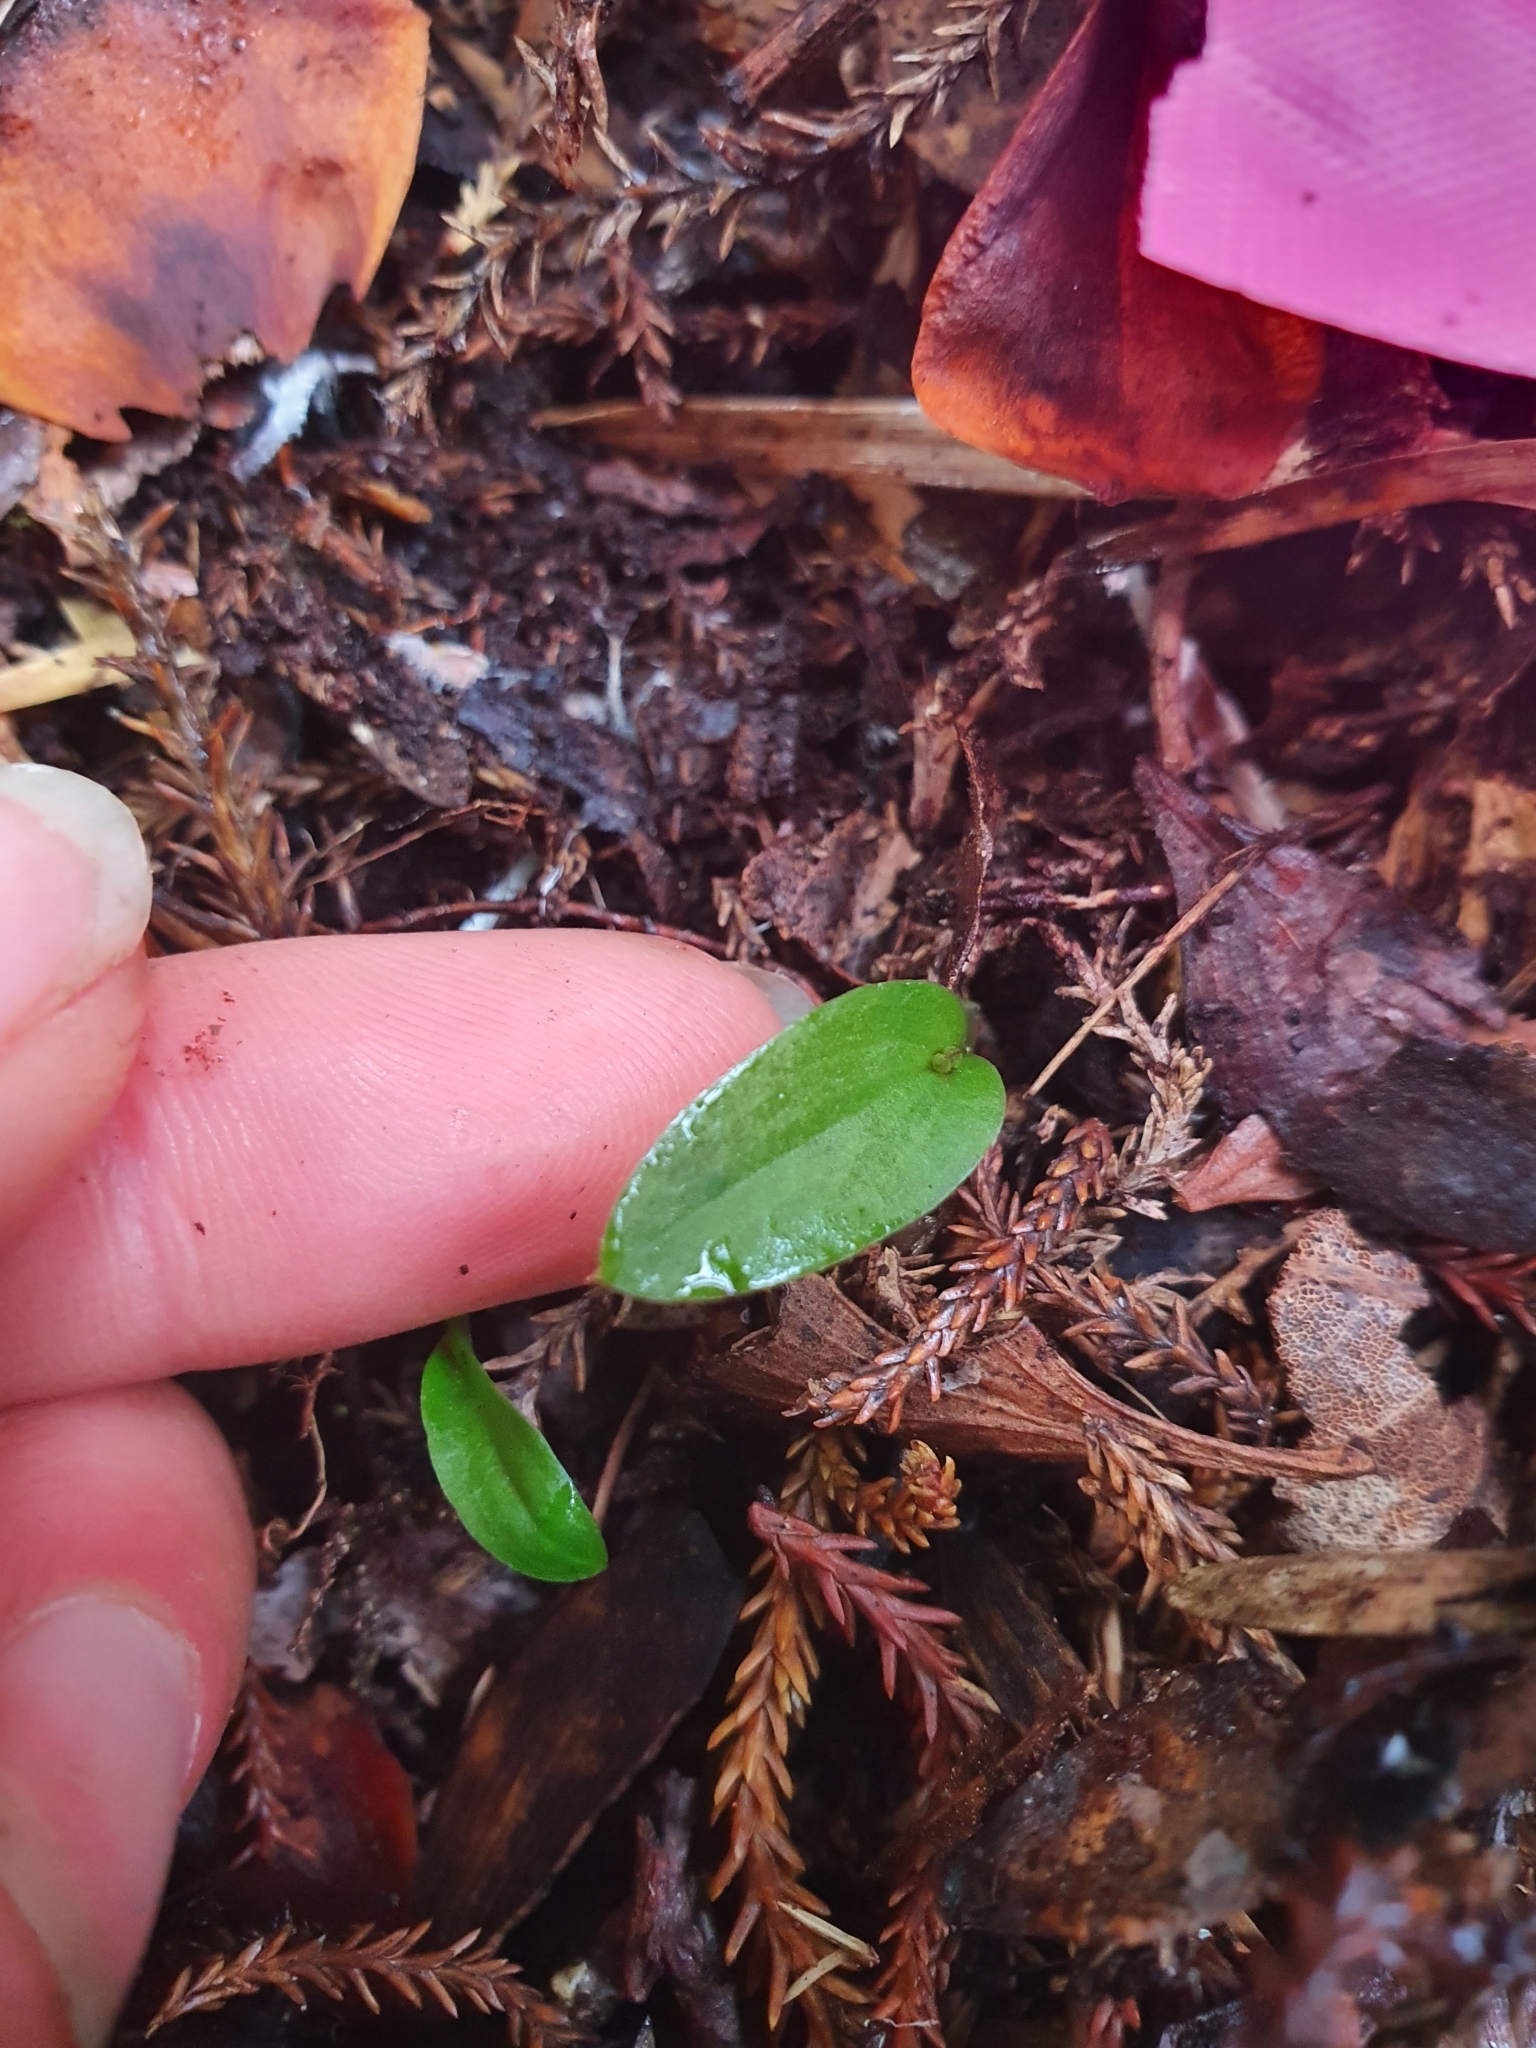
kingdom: Plantae
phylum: Tracheophyta
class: Liliopsida
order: Asparagales
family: Orchidaceae
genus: Cyrtostylis
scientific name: Cyrtostylis oblonga
